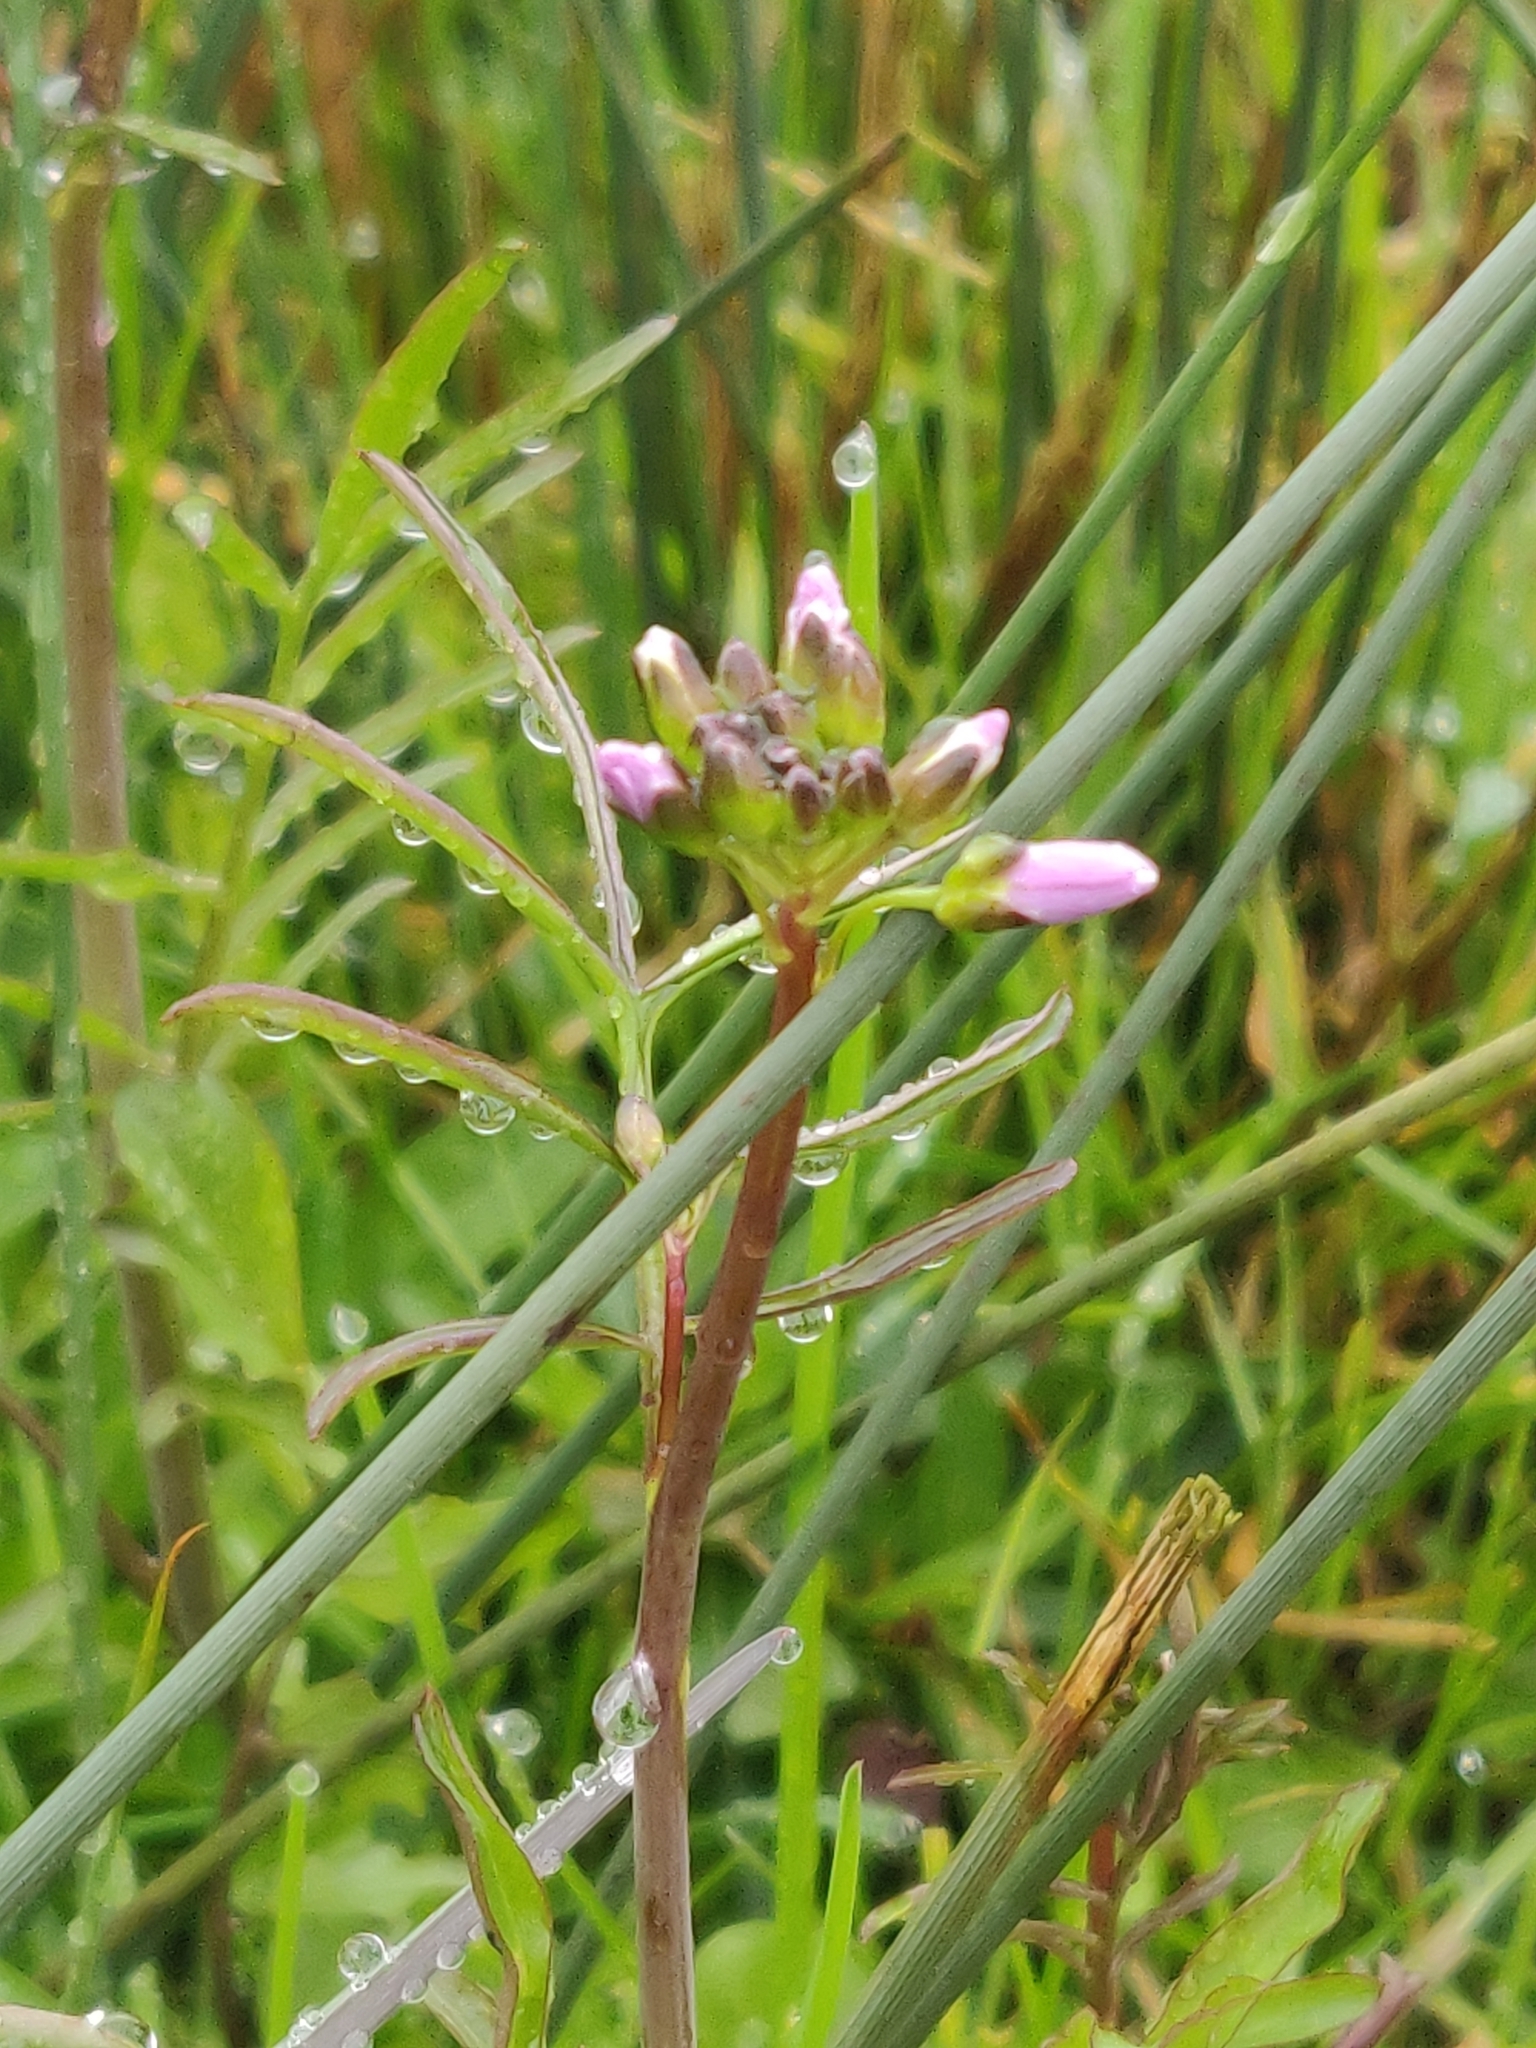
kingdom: Plantae
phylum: Tracheophyta
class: Magnoliopsida
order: Brassicales
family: Brassicaceae
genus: Cardamine
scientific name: Cardamine pratensis
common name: Cuckoo flower
